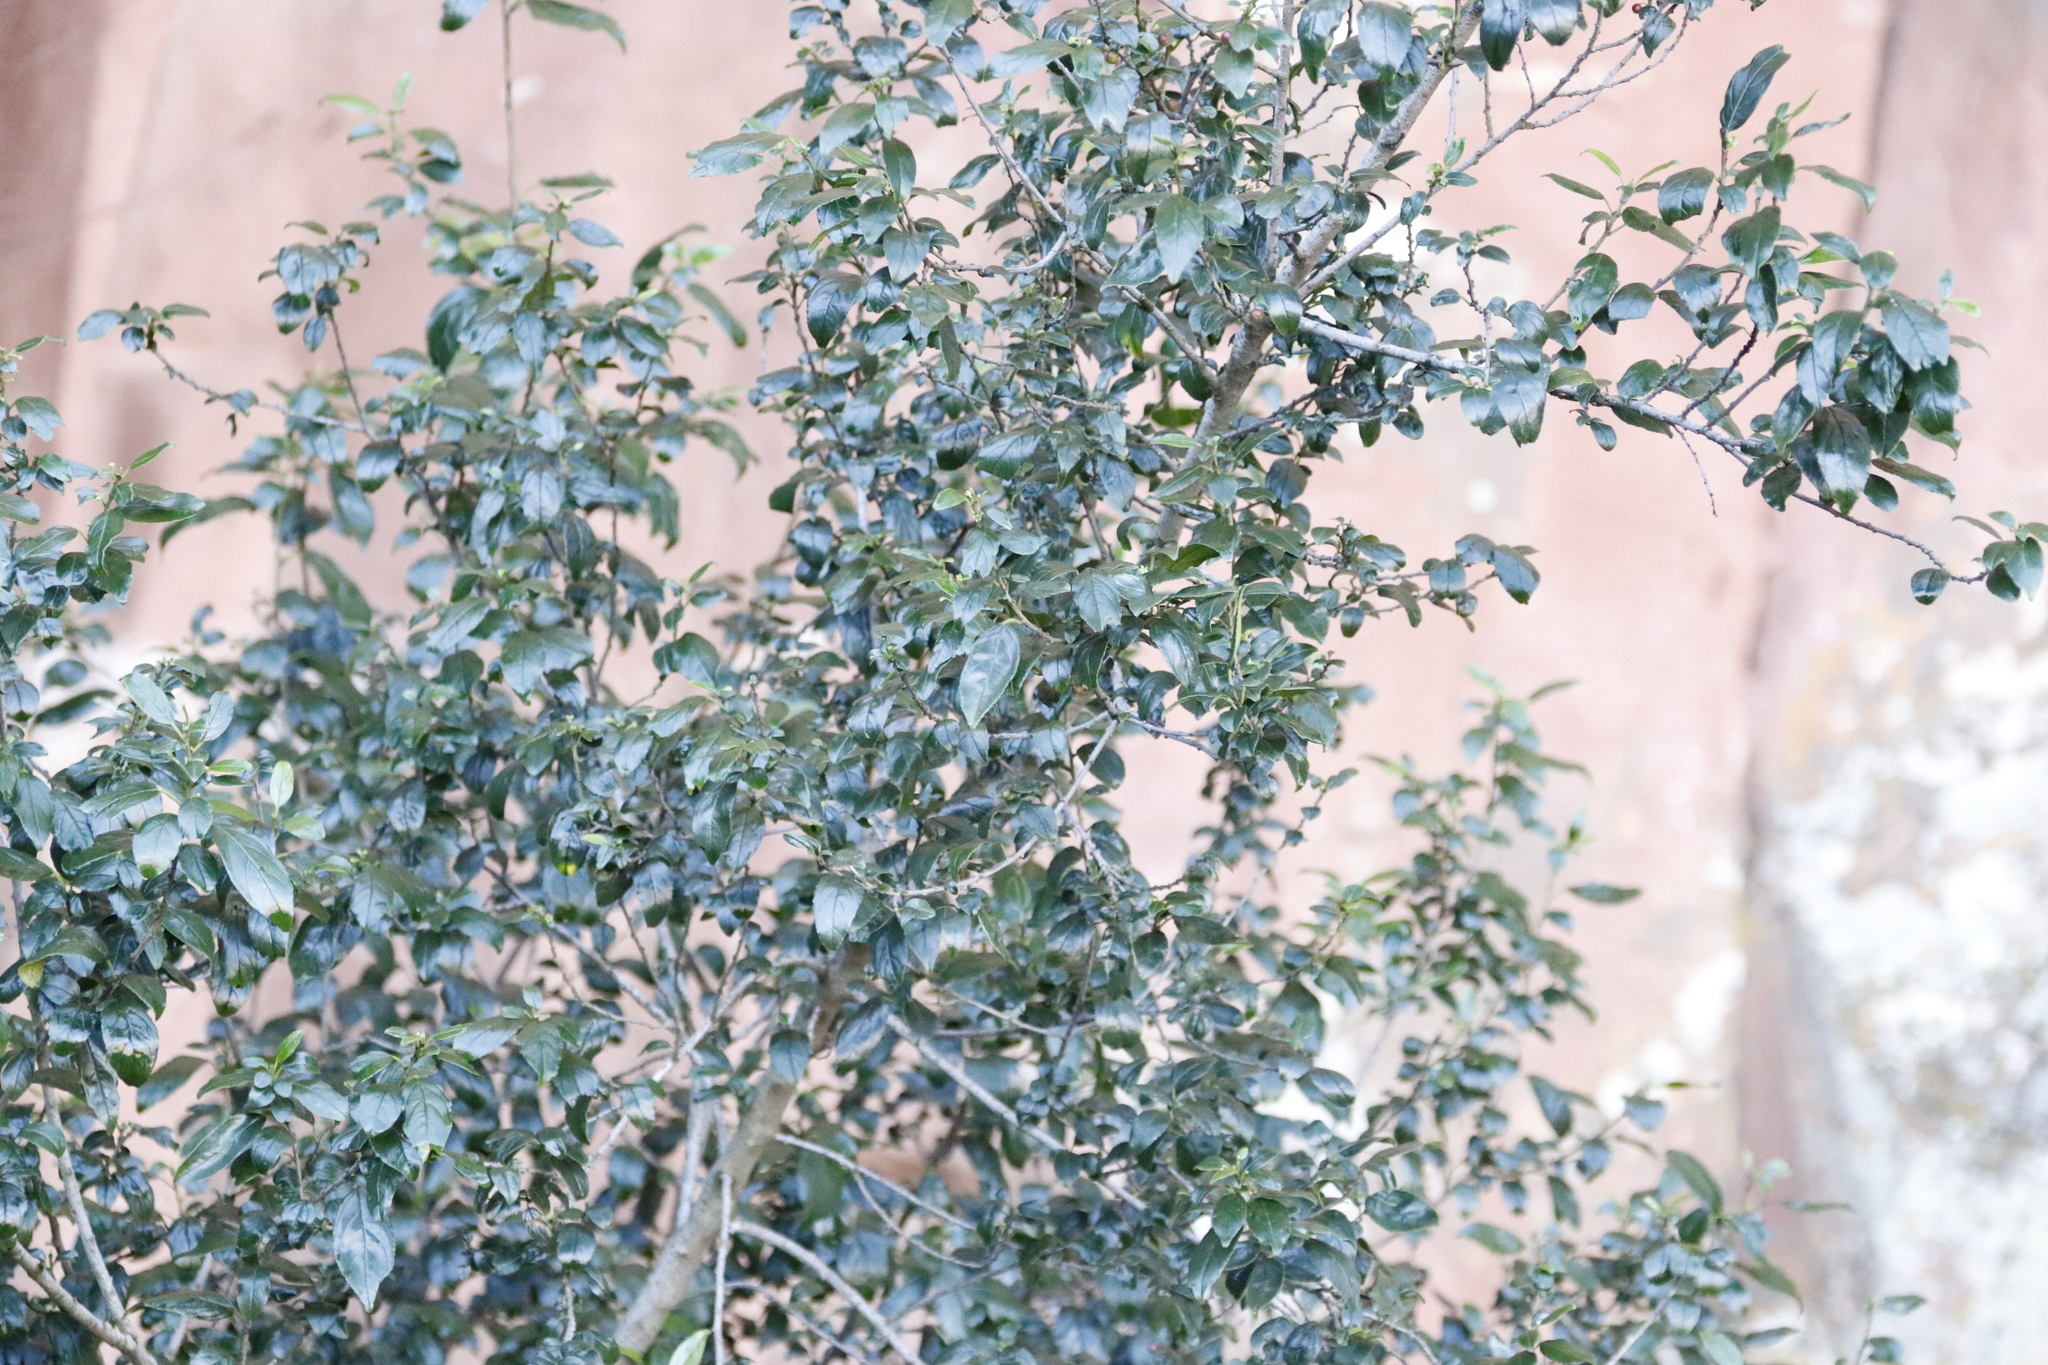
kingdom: Plantae
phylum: Tracheophyta
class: Magnoliopsida
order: Rosales
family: Rhamnaceae
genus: Rhamnus
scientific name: Rhamnus prinoides
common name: Dogwood
